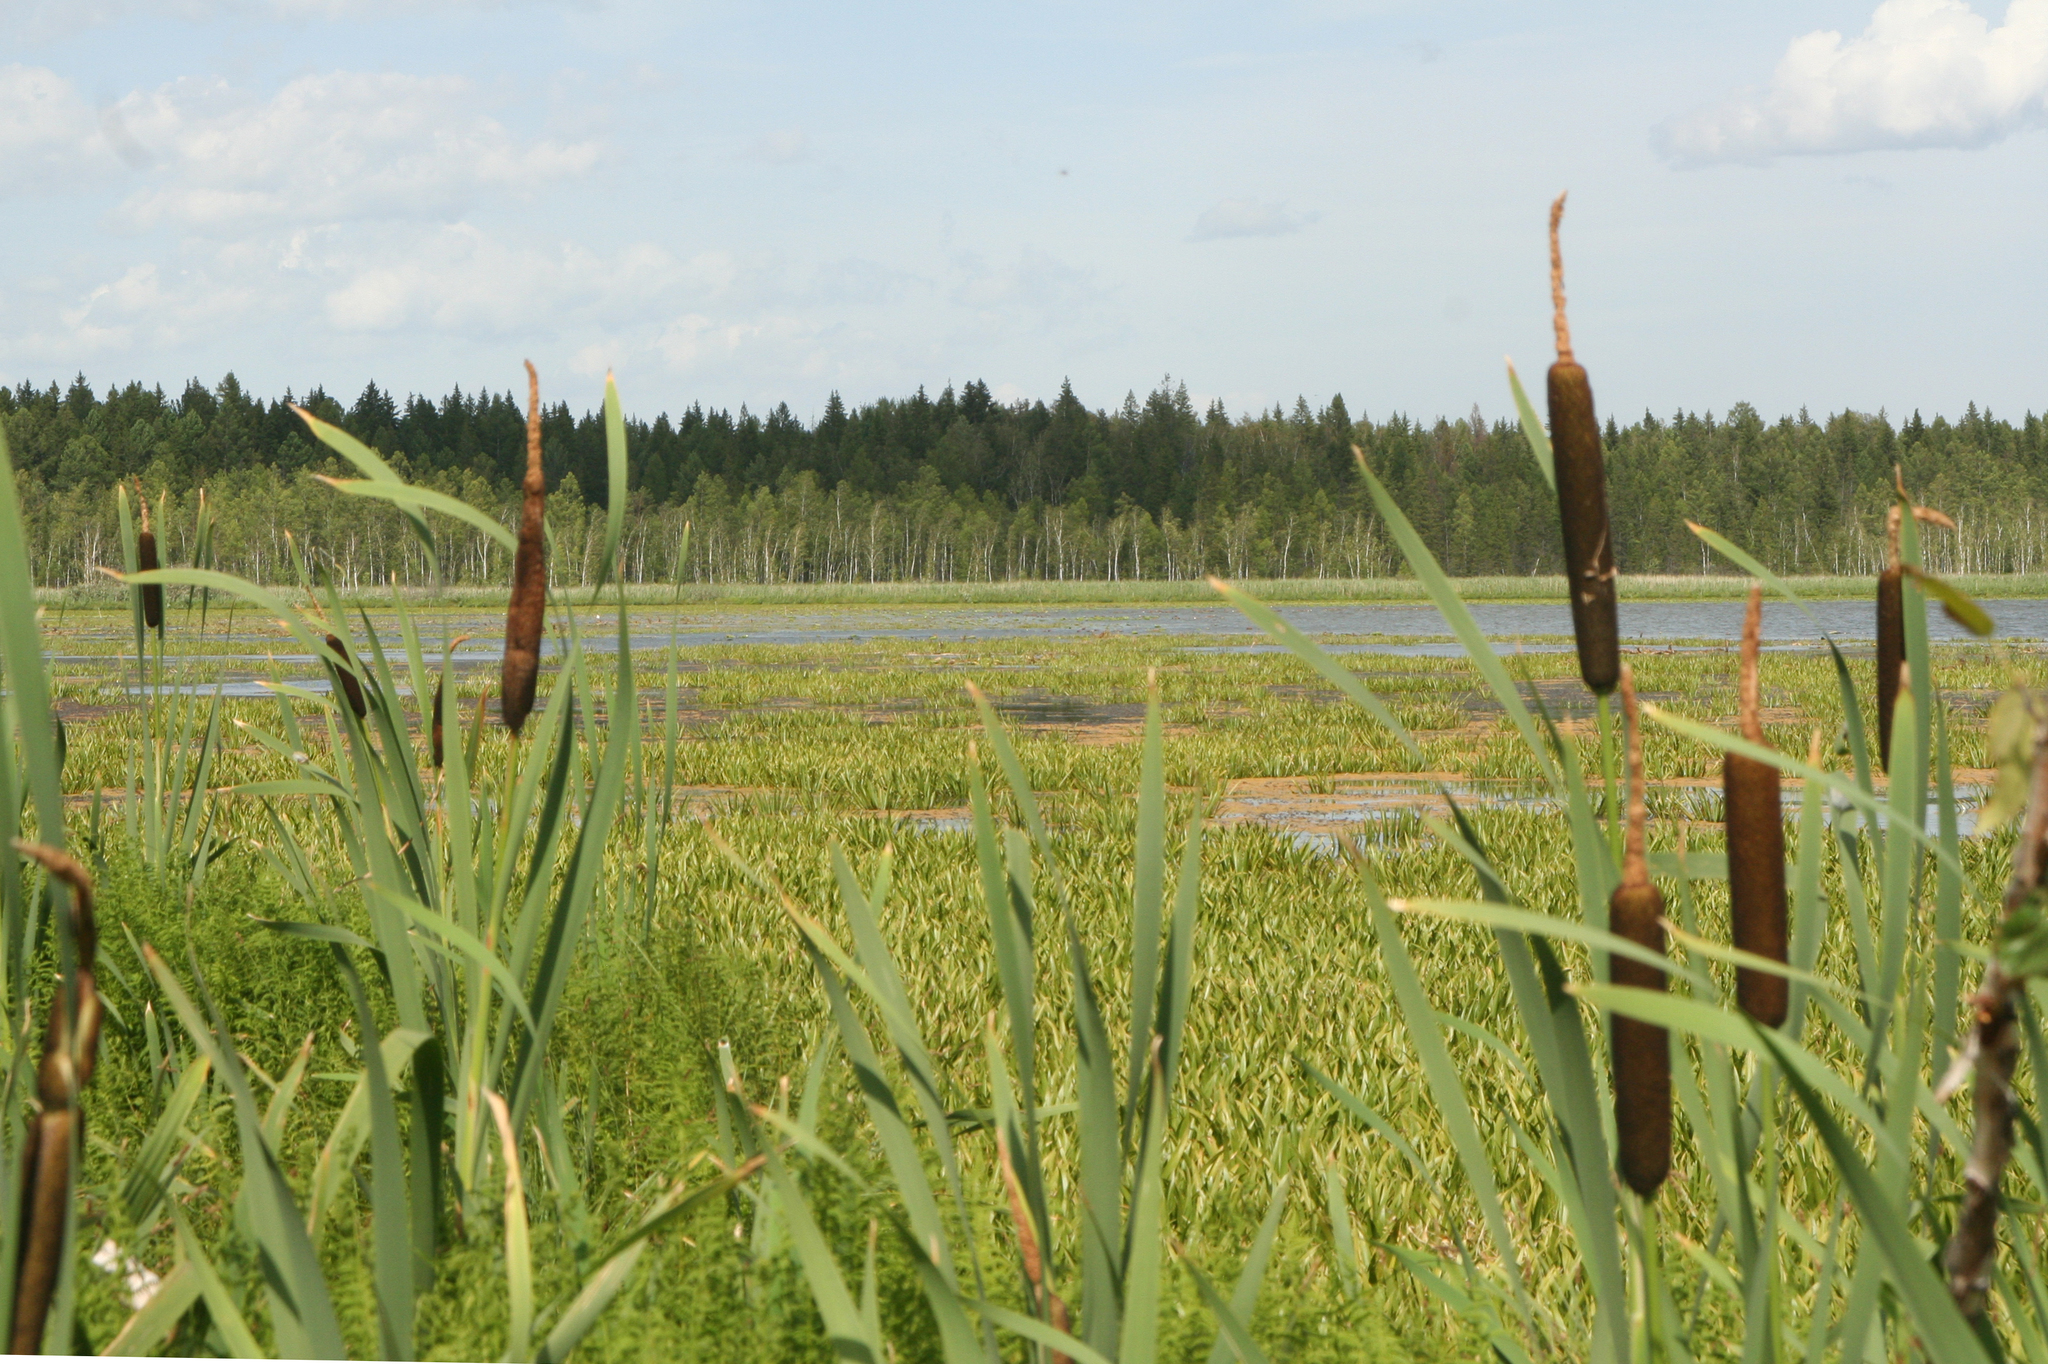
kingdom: Plantae
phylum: Tracheophyta
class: Liliopsida
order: Poales
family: Typhaceae
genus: Typha
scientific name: Typha latifolia
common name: Broadleaf cattail
